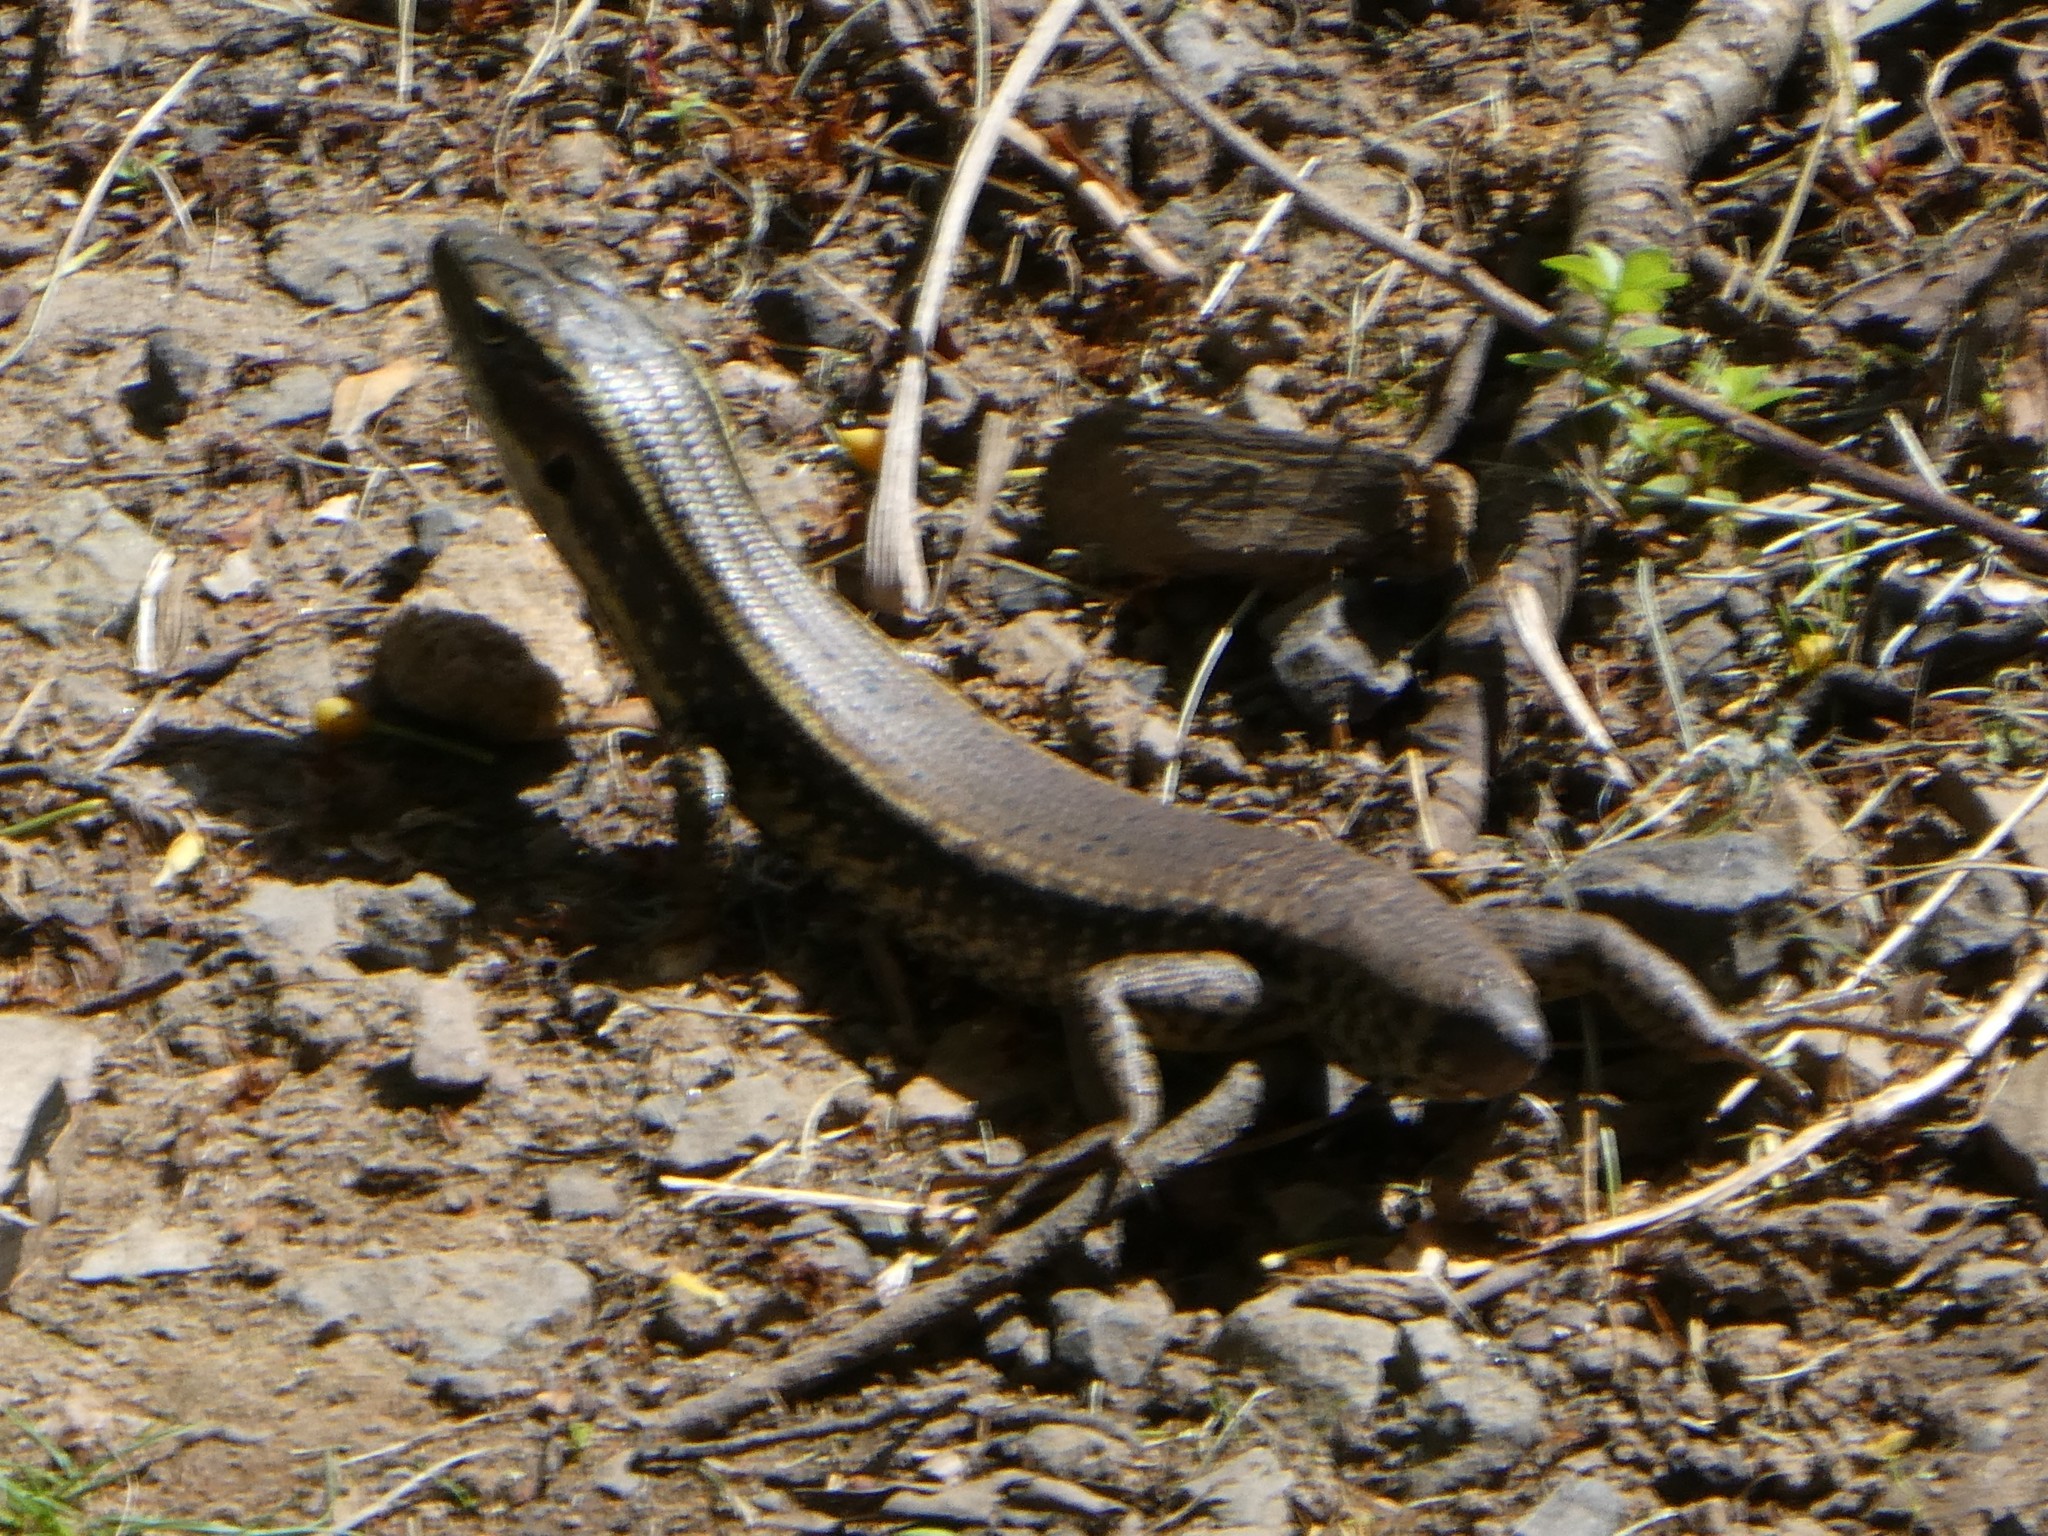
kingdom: Animalia
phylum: Chordata
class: Squamata
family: Scincidae
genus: Eulamprus
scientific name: Eulamprus quoyii
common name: Eastern water skink
